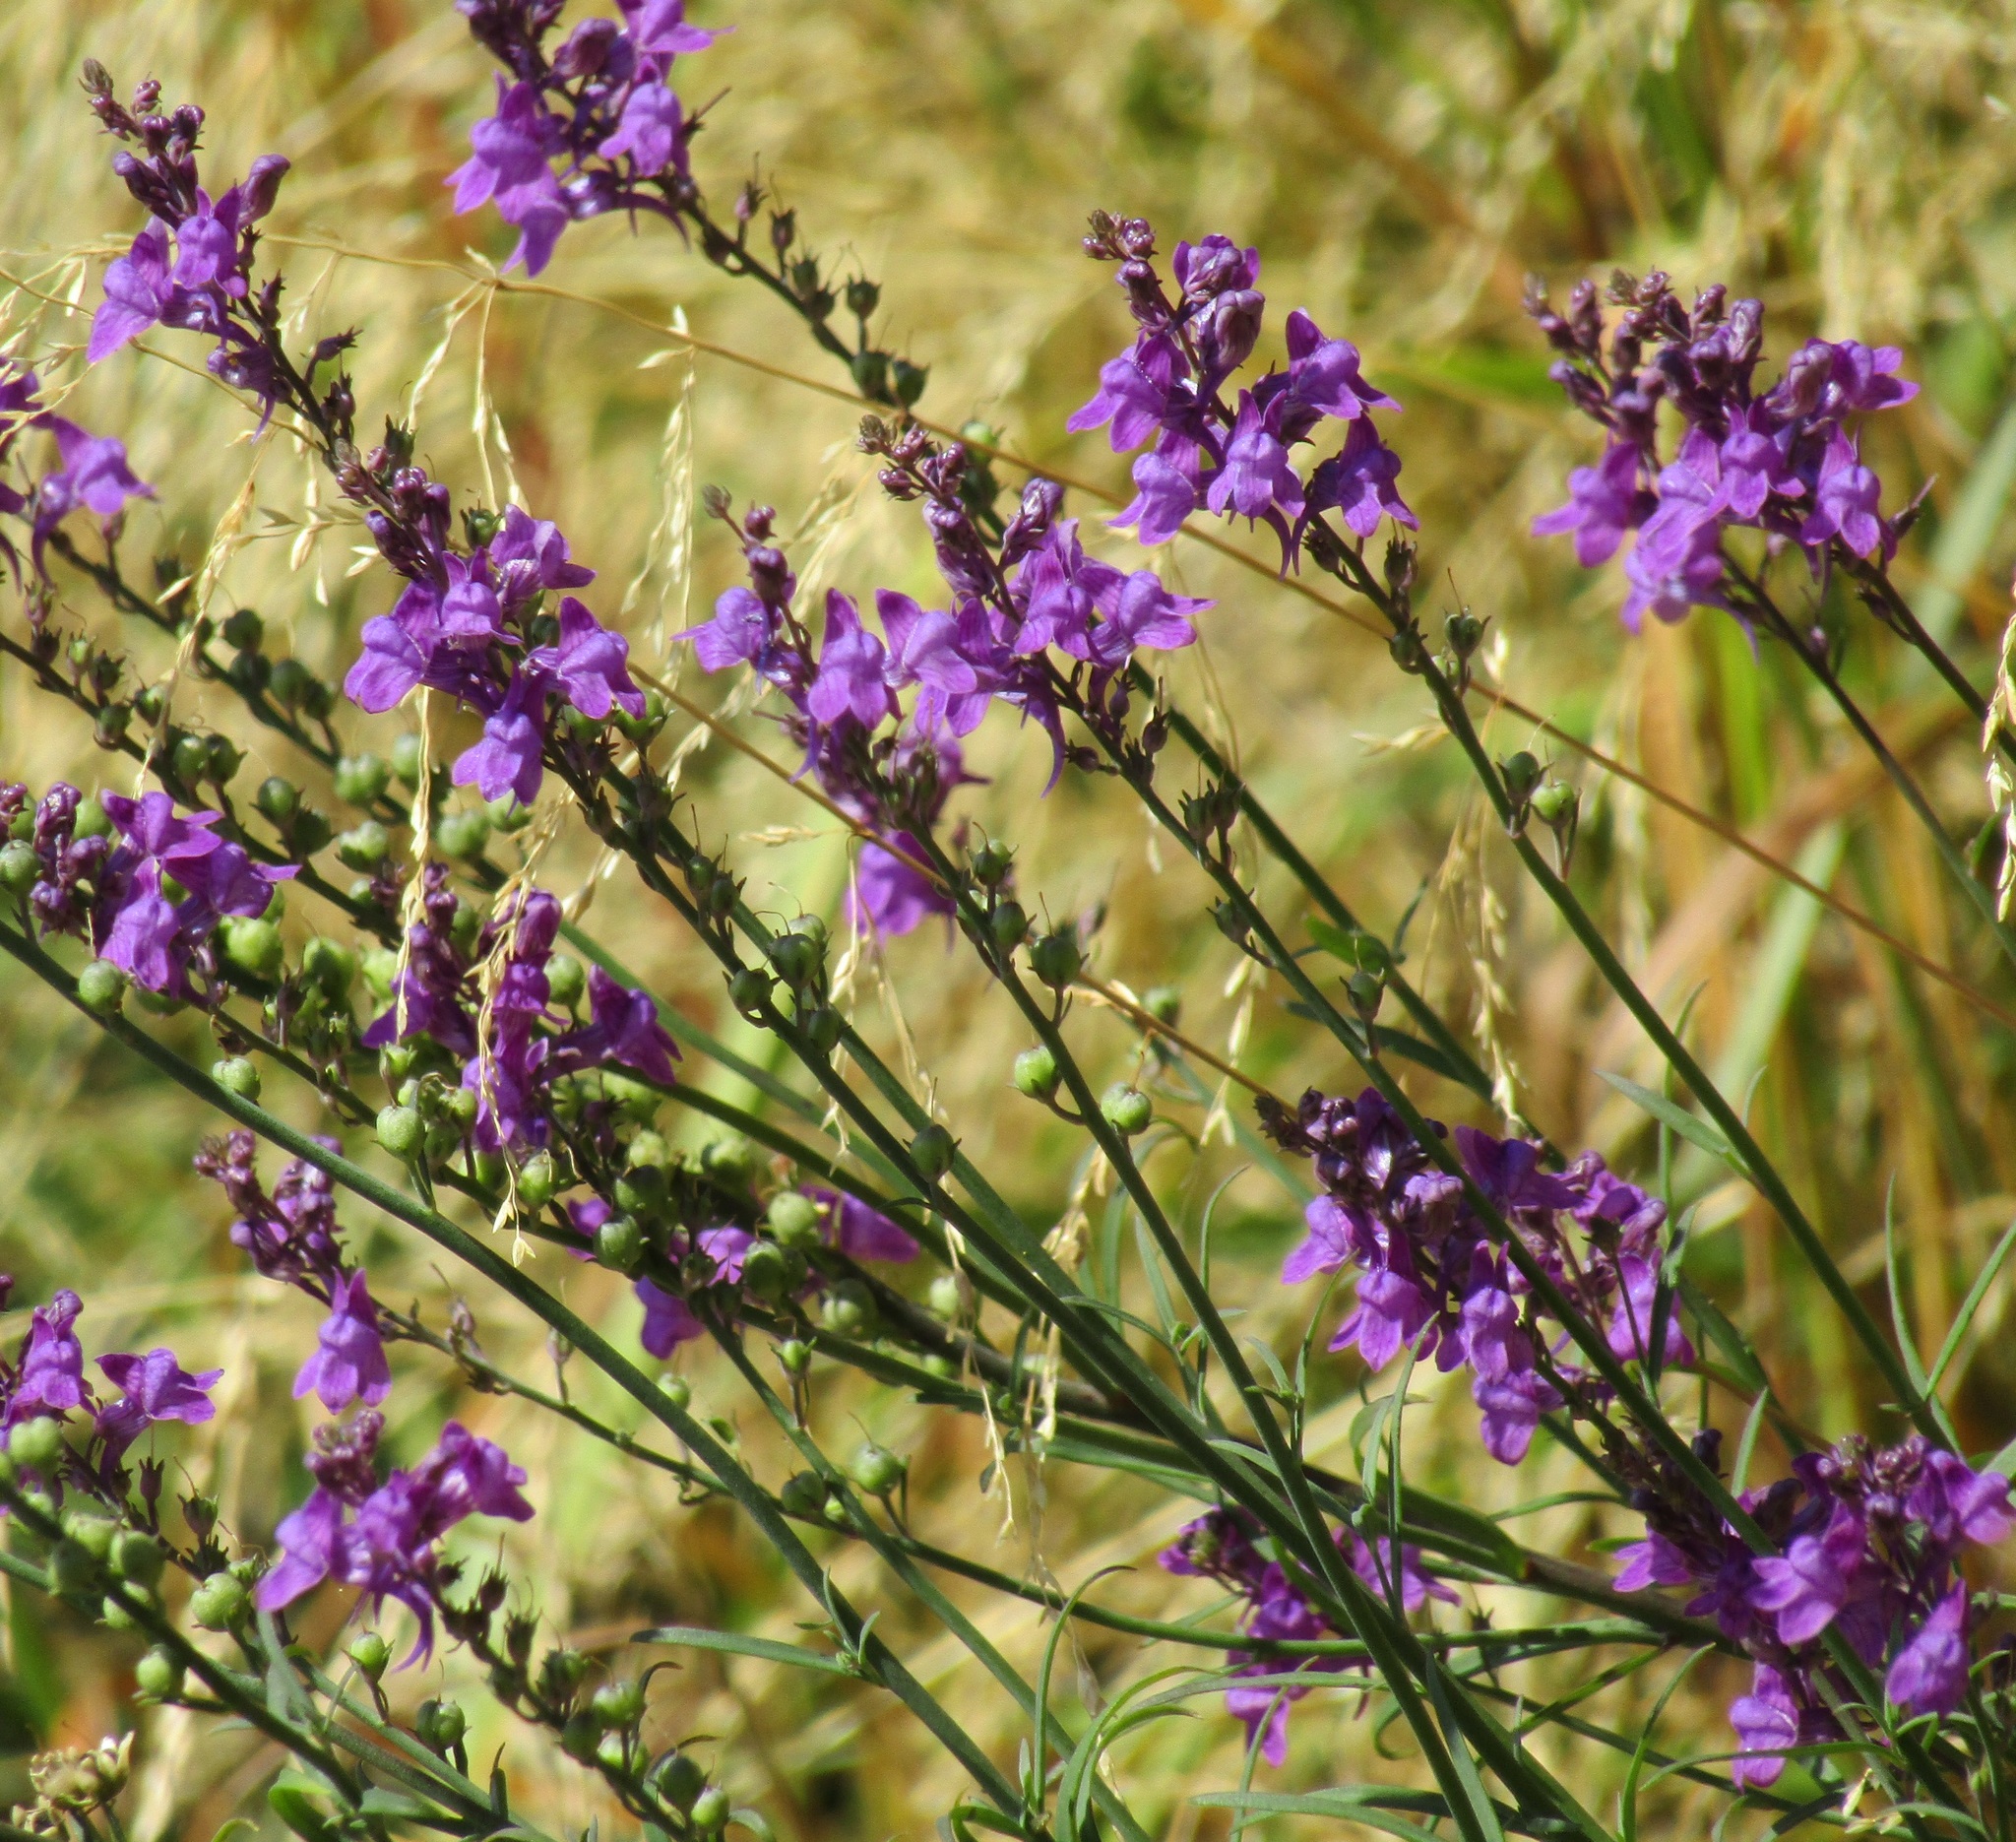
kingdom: Plantae
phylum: Tracheophyta
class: Magnoliopsida
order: Lamiales
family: Plantaginaceae
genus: Linaria
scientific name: Linaria purpurea
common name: Purple toadflax
